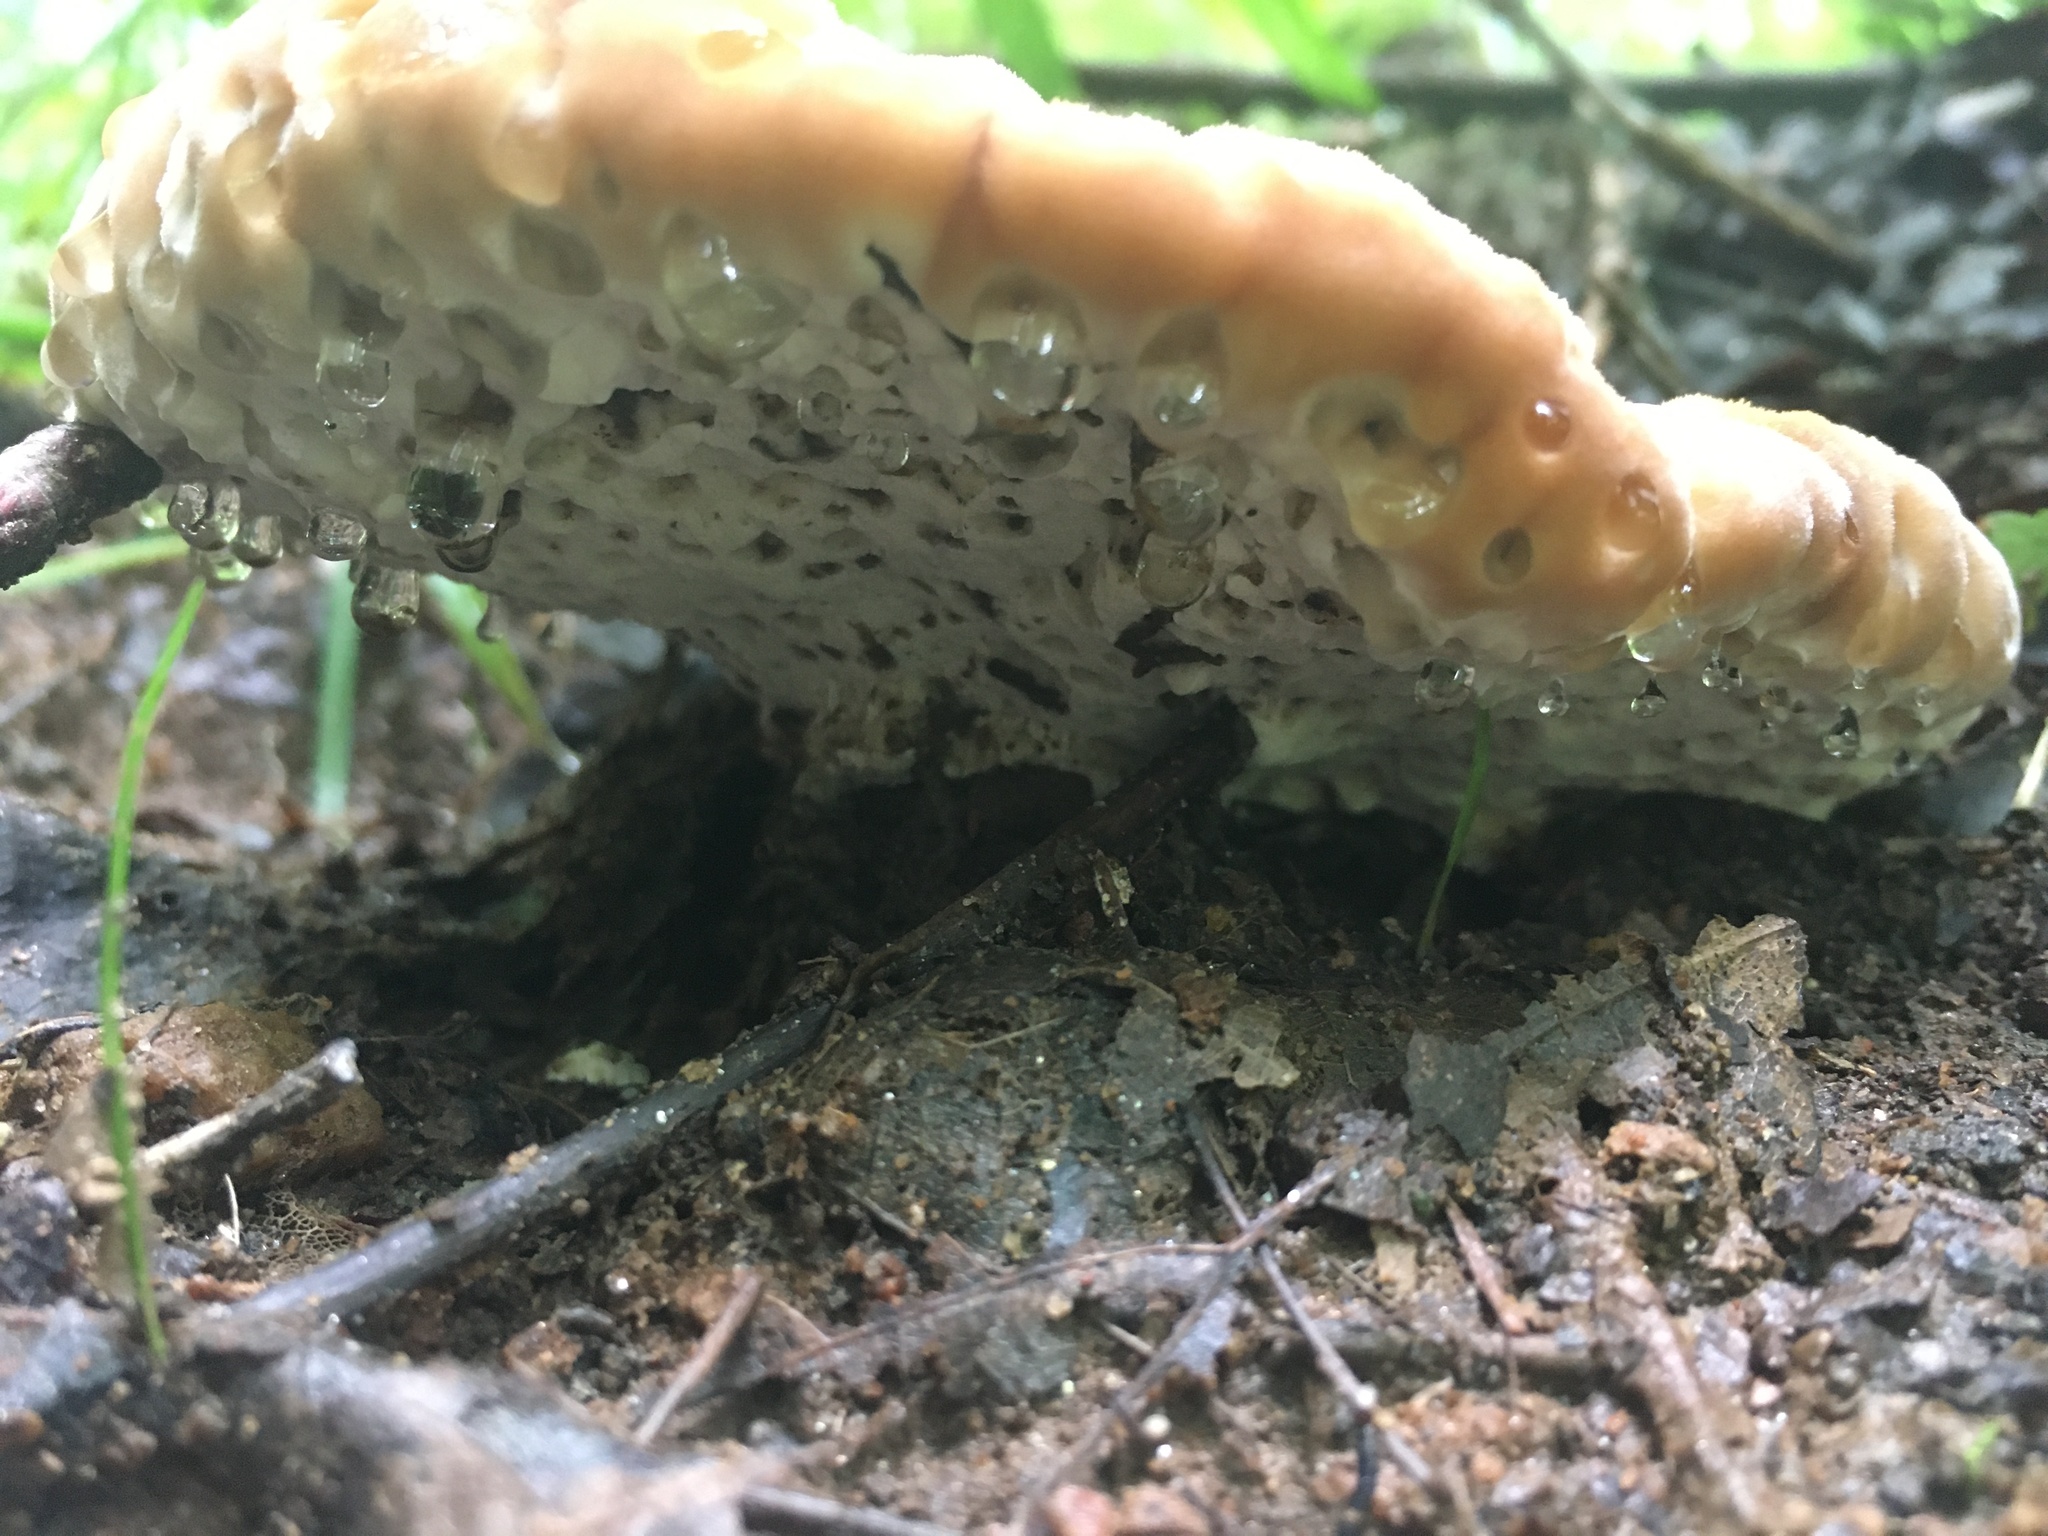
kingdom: Fungi
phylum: Basidiomycota
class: Agaricomycetes
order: Polyporales
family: Fomitopsidaceae
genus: Niveoporofomes
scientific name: Niveoporofomes spraguei
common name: Green cheese polypore
